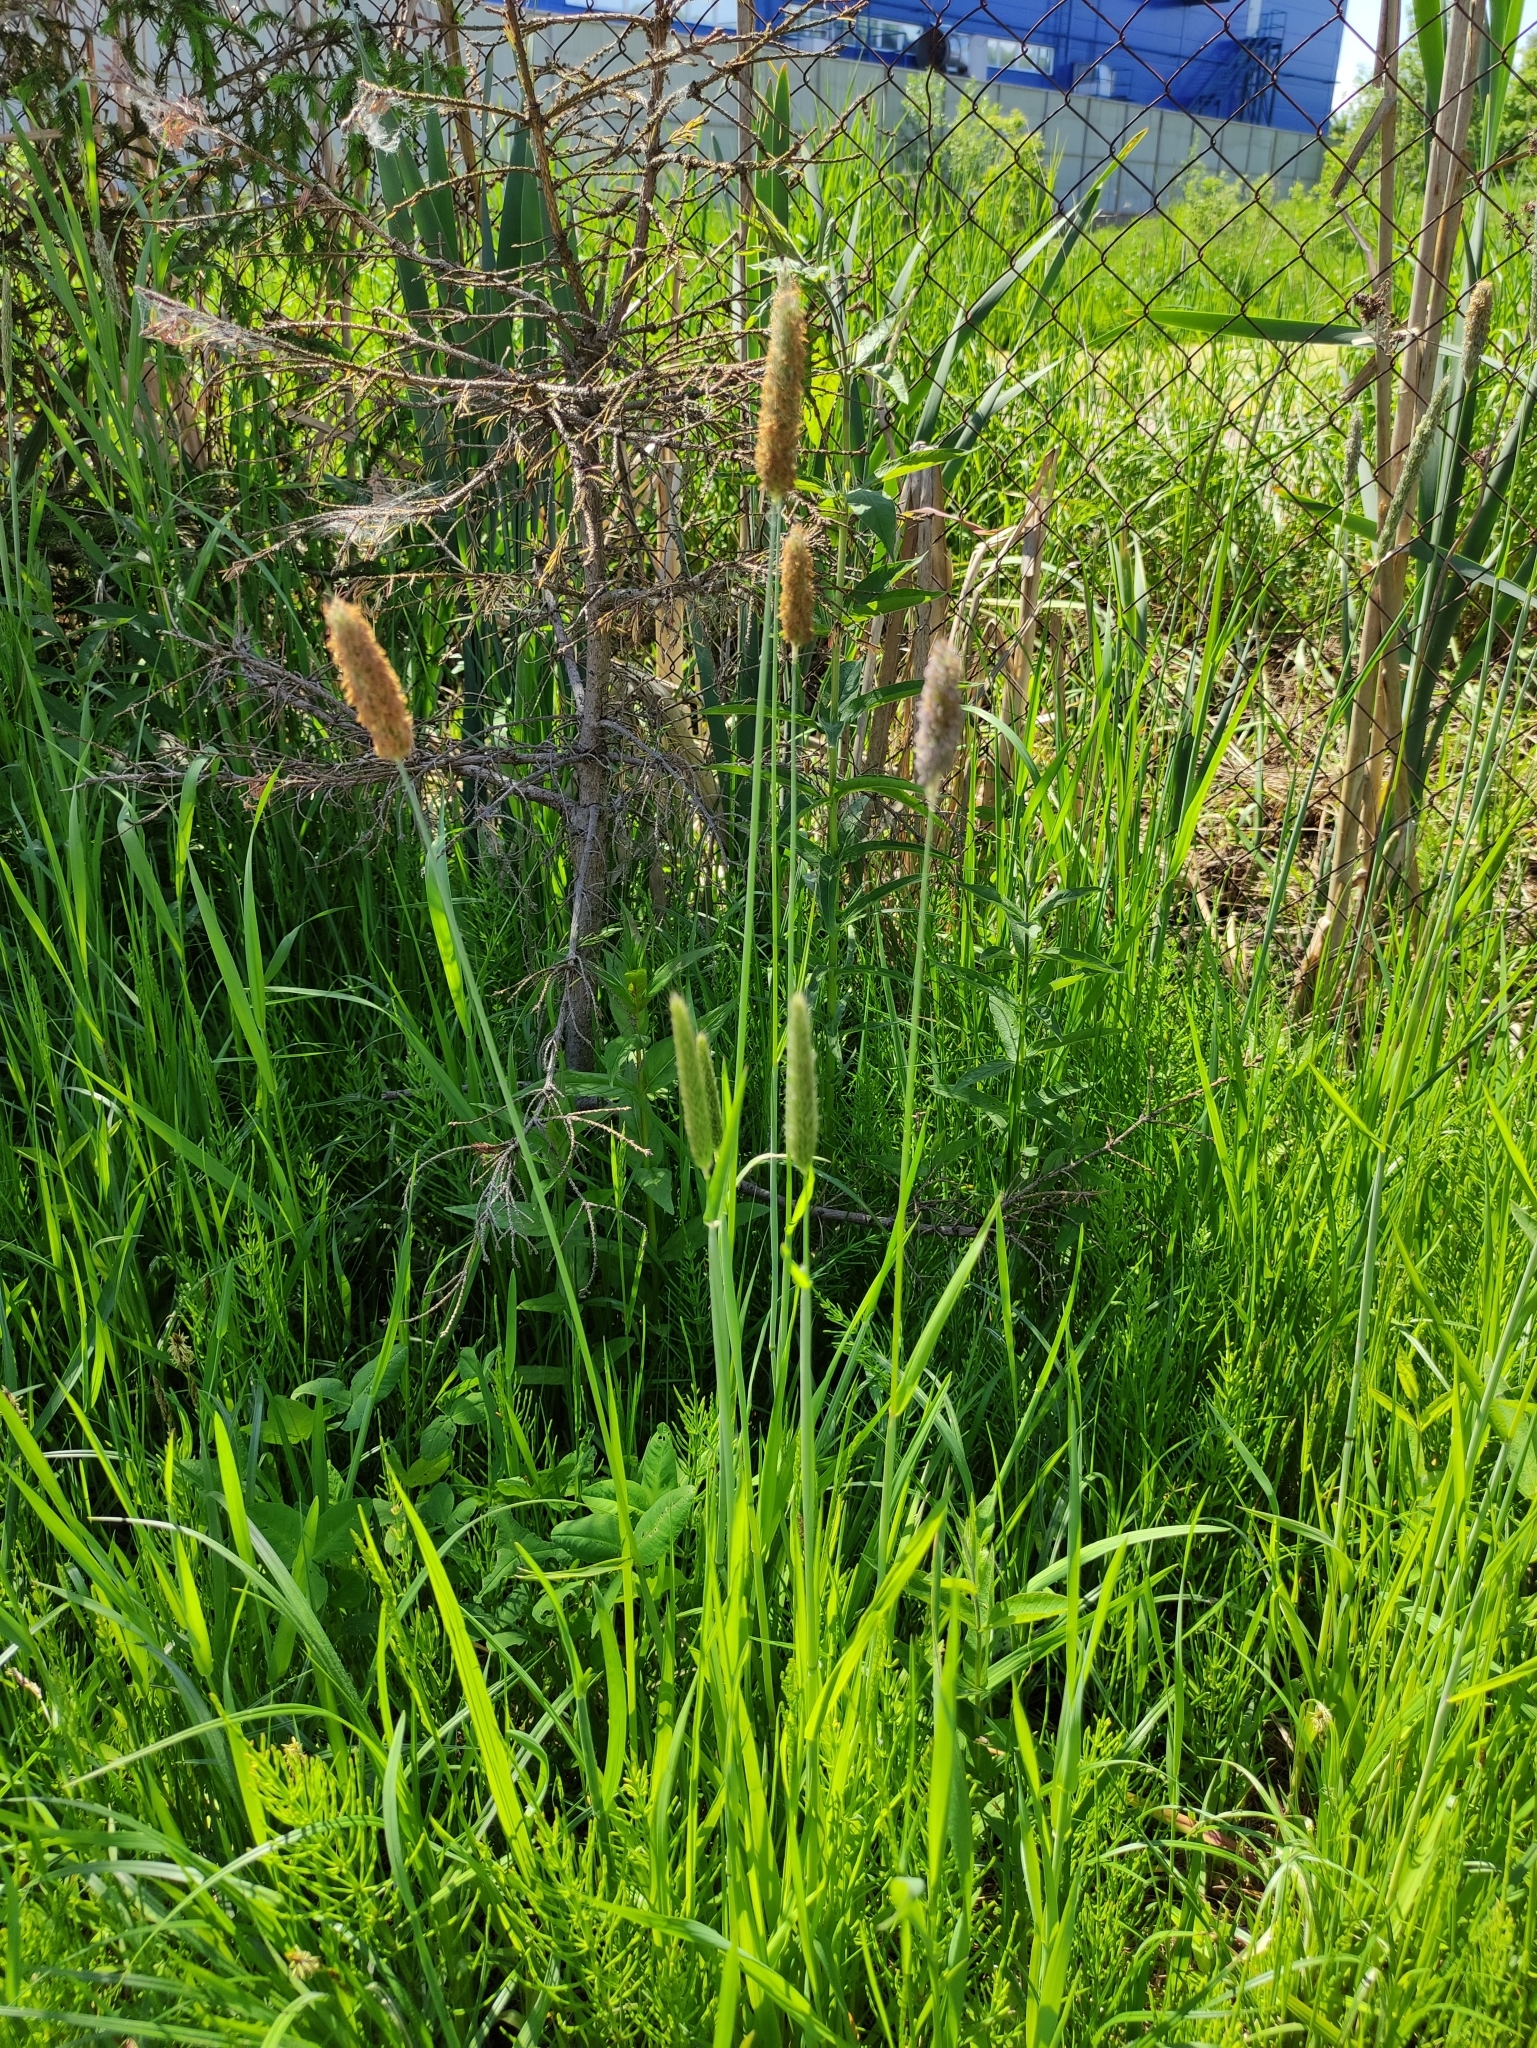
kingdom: Plantae
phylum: Tracheophyta
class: Liliopsida
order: Poales
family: Poaceae
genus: Alopecurus
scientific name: Alopecurus pratensis
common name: Meadow foxtail
